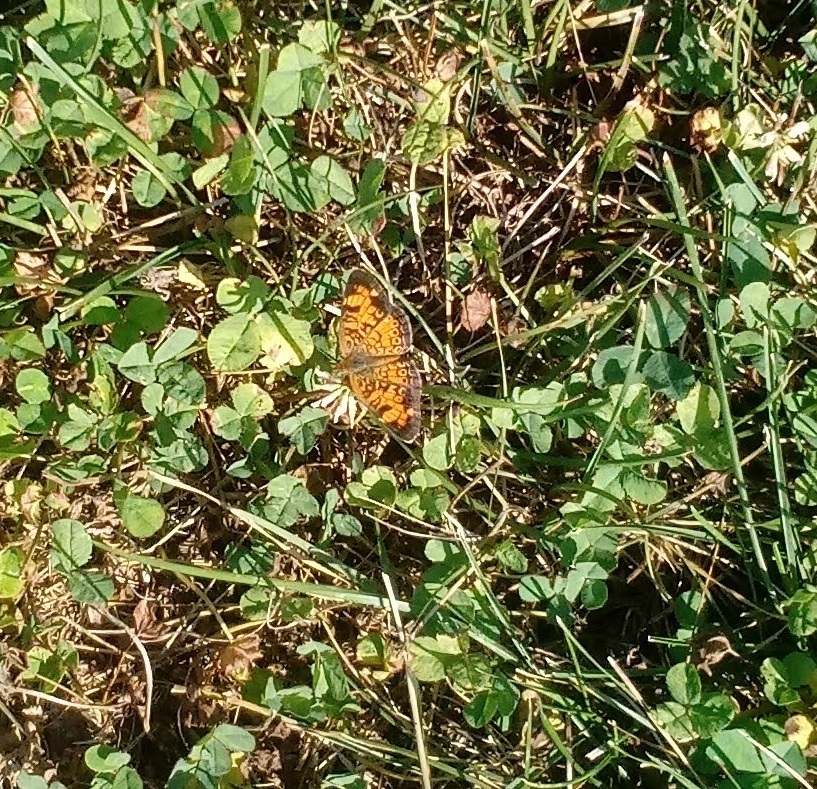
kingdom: Animalia
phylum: Arthropoda
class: Insecta
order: Lepidoptera
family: Nymphalidae
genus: Phyciodes
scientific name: Phyciodes tharos
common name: Pearl crescent
